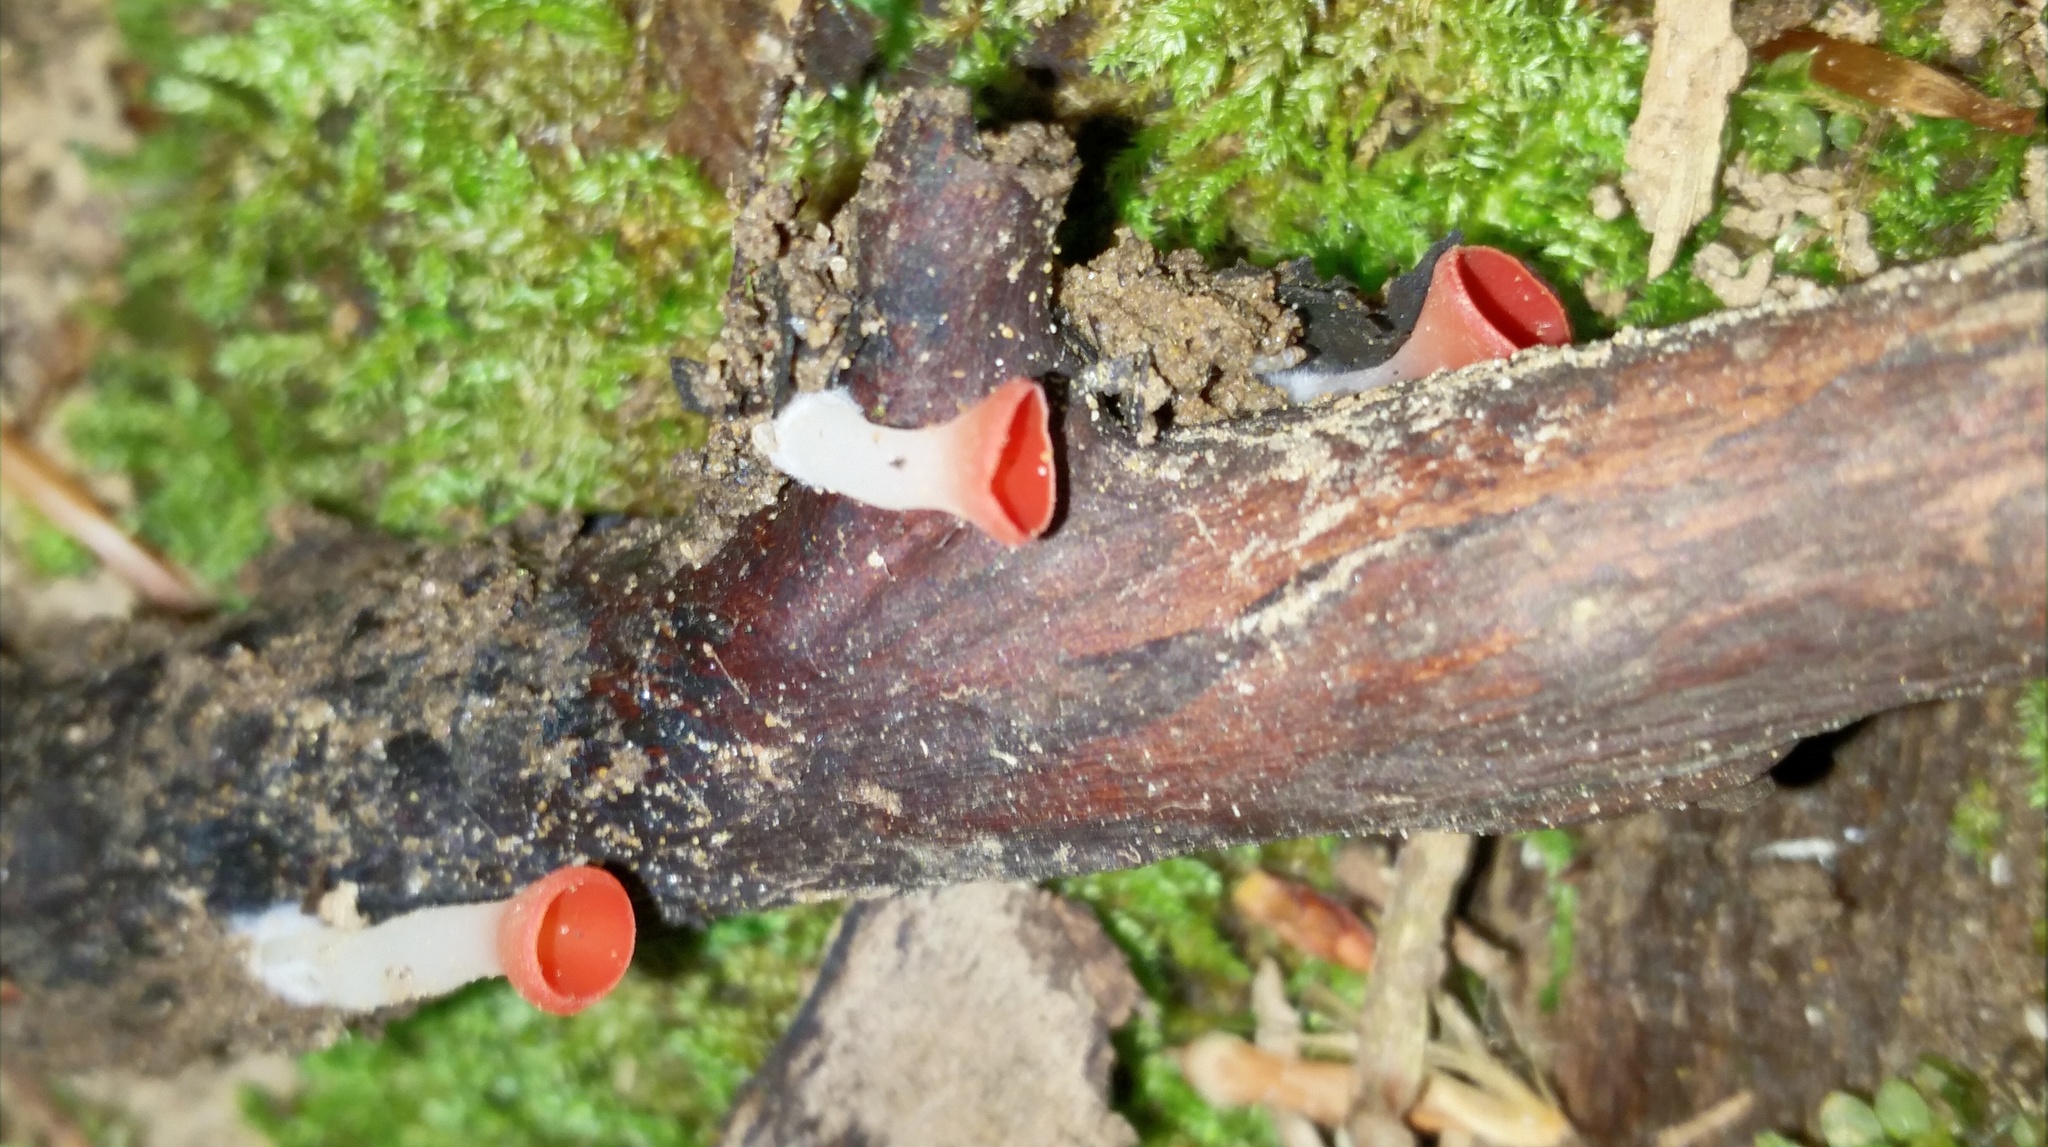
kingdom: Fungi
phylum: Ascomycota
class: Pezizomycetes
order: Pezizales
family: Sarcoscyphaceae
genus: Sarcoscypha
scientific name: Sarcoscypha occidentalis
